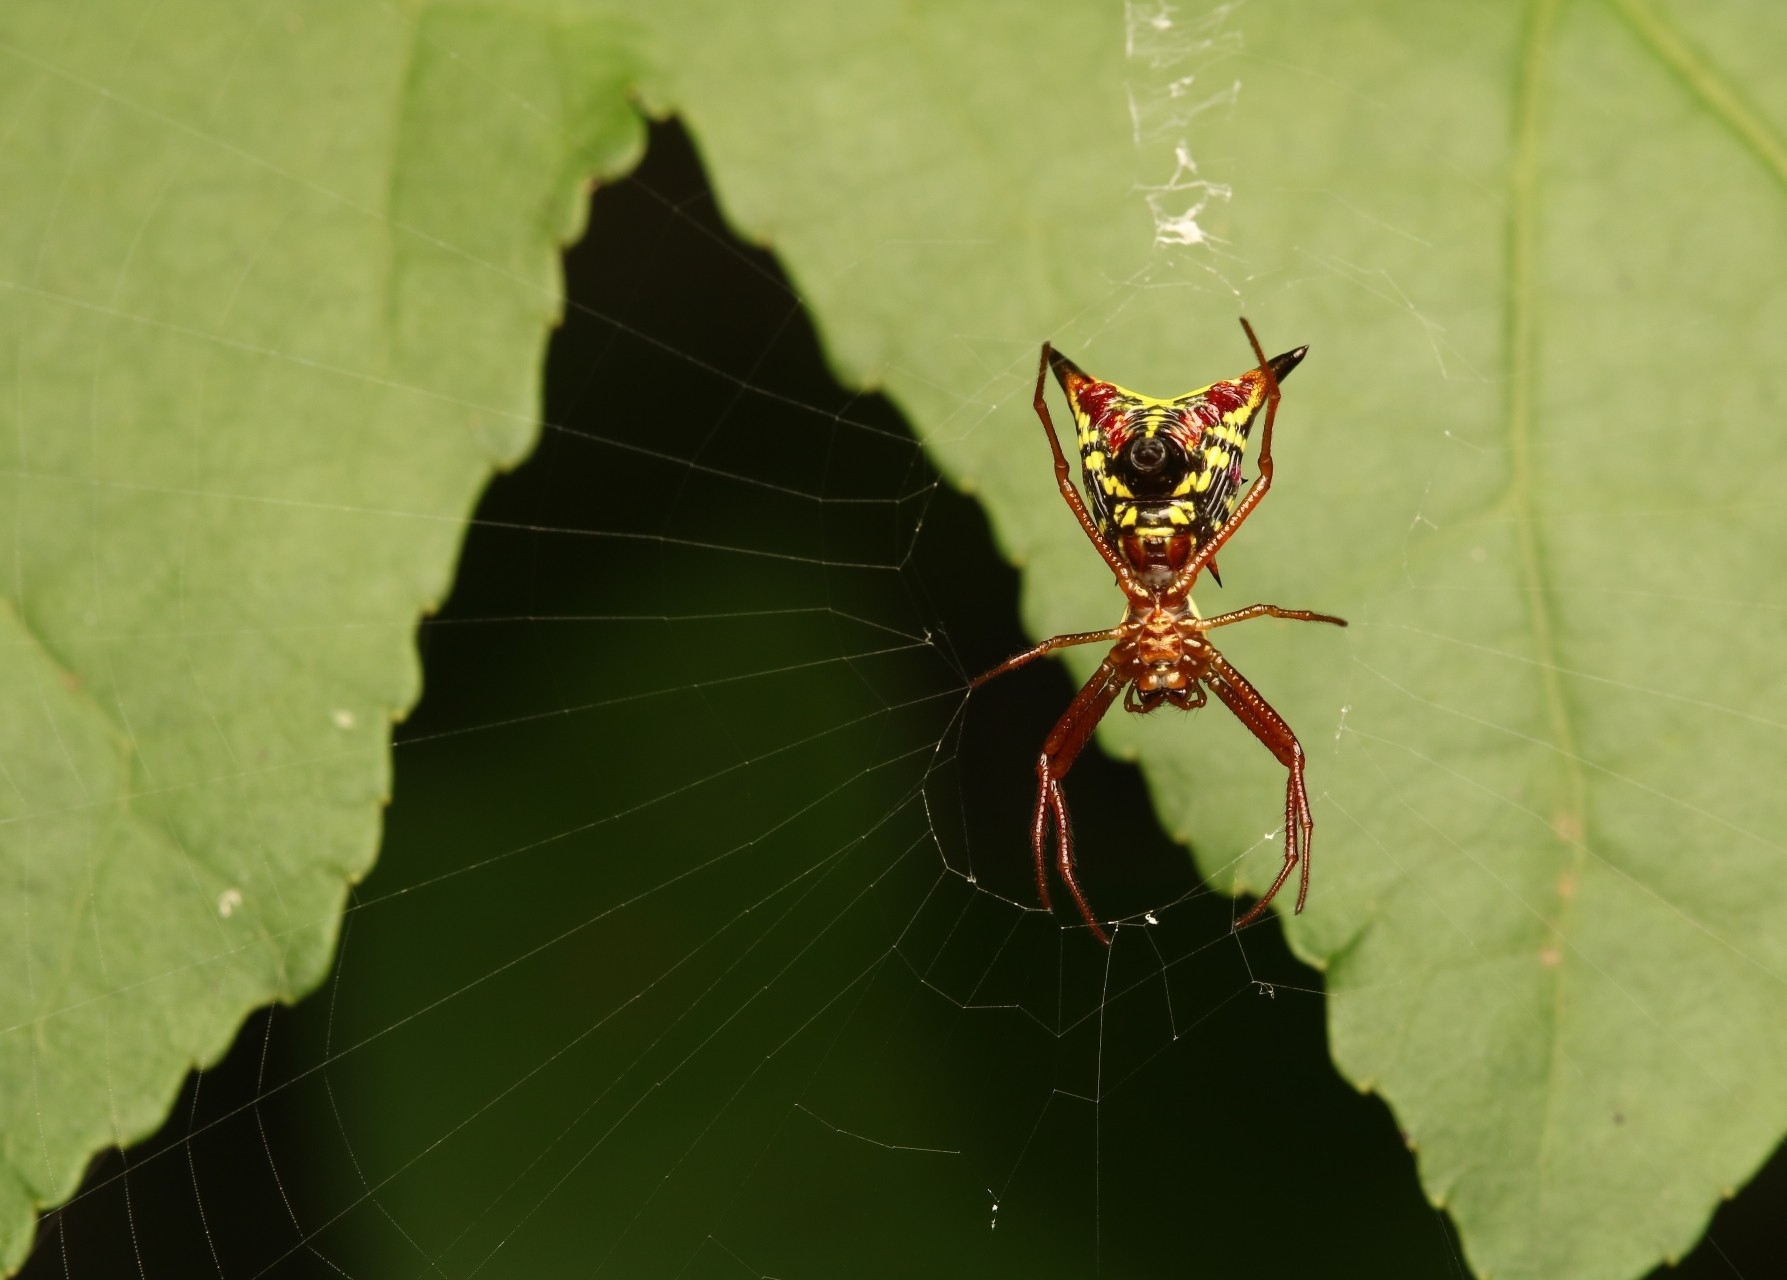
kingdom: Animalia
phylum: Arthropoda
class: Arachnida
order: Araneae
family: Araneidae
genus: Micrathena
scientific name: Micrathena sagittata
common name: Orb weavers
